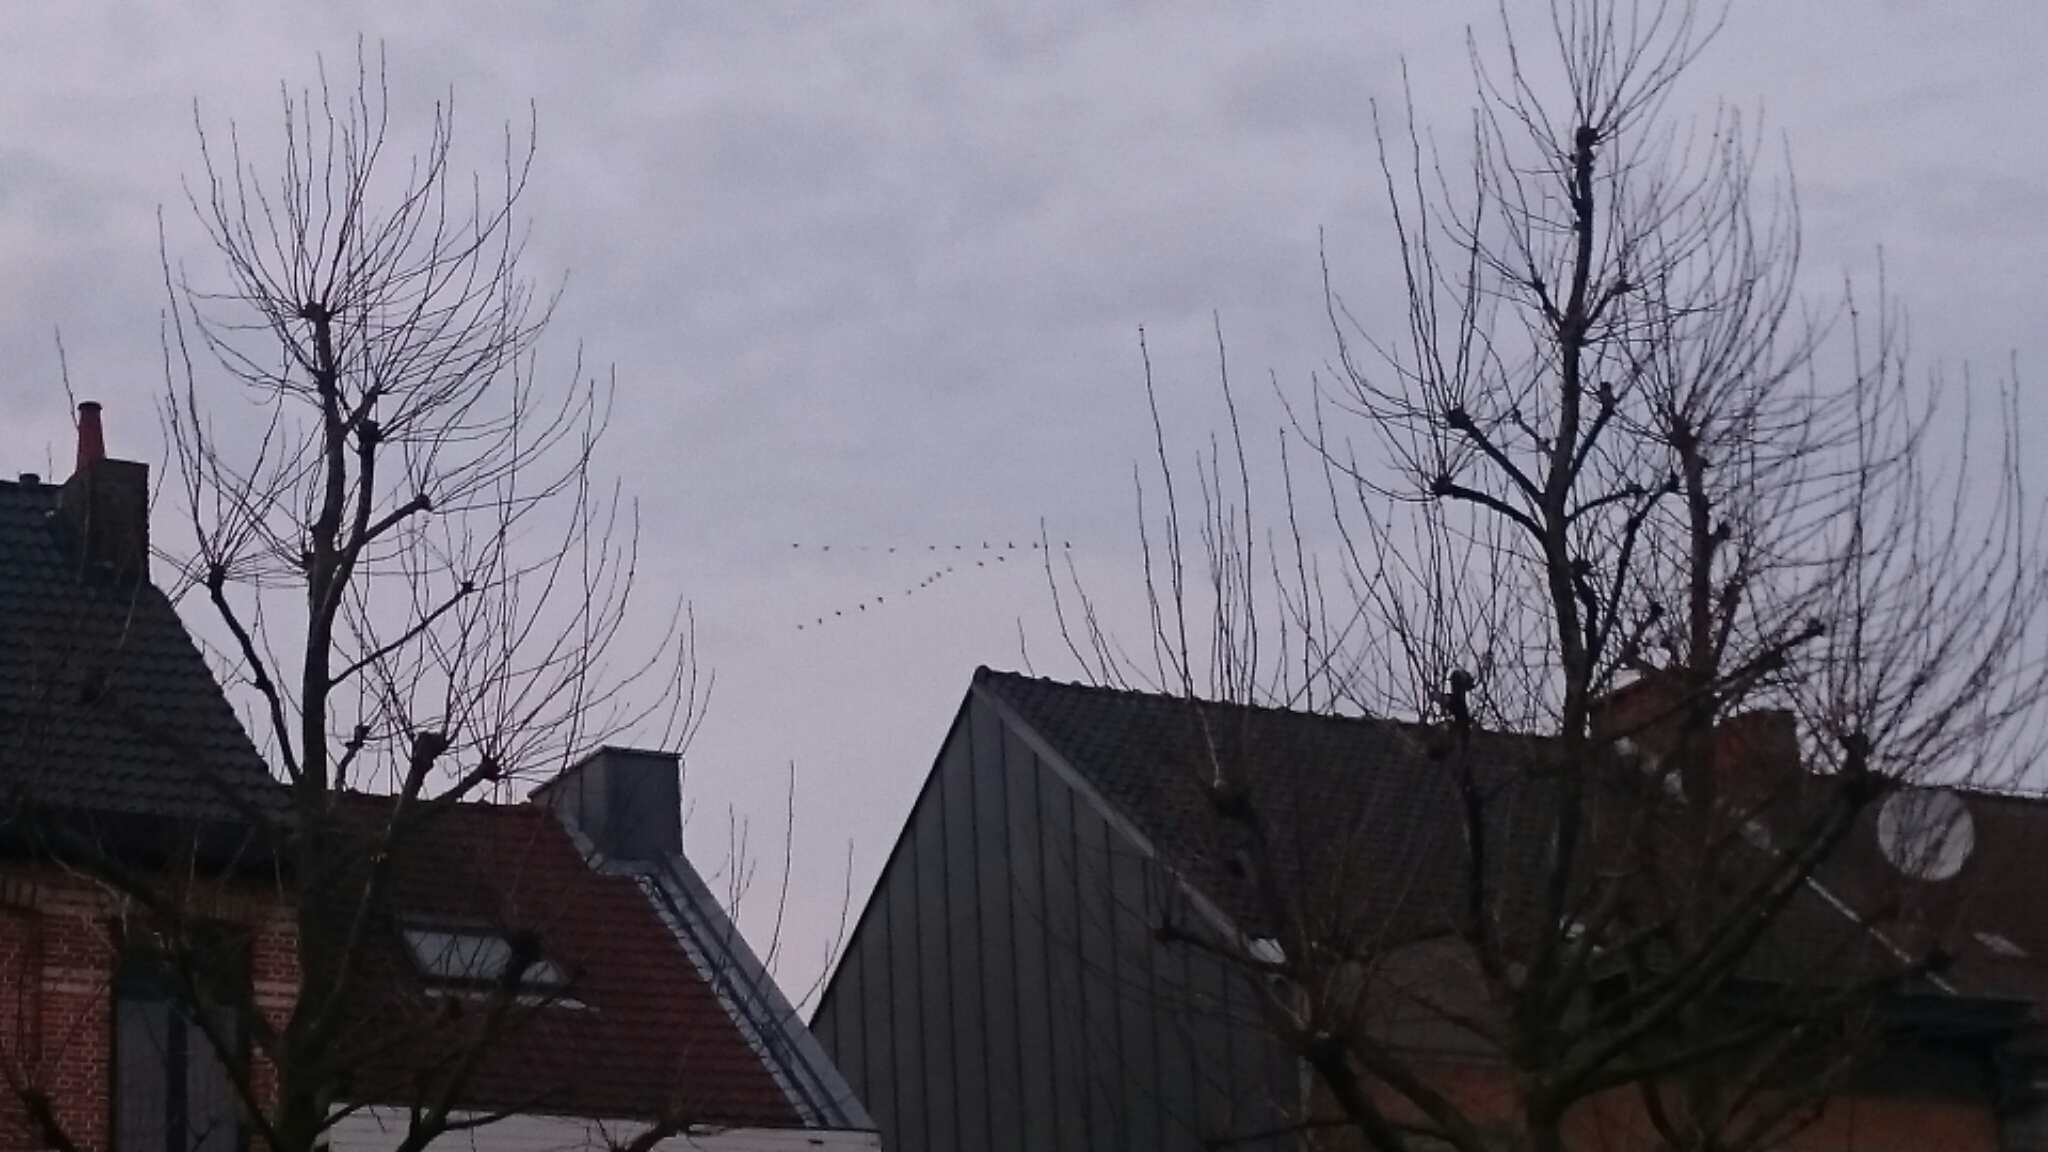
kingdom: Animalia
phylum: Chordata
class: Aves
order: Gruiformes
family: Gruidae
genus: Grus
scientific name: Grus grus
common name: Common crane
